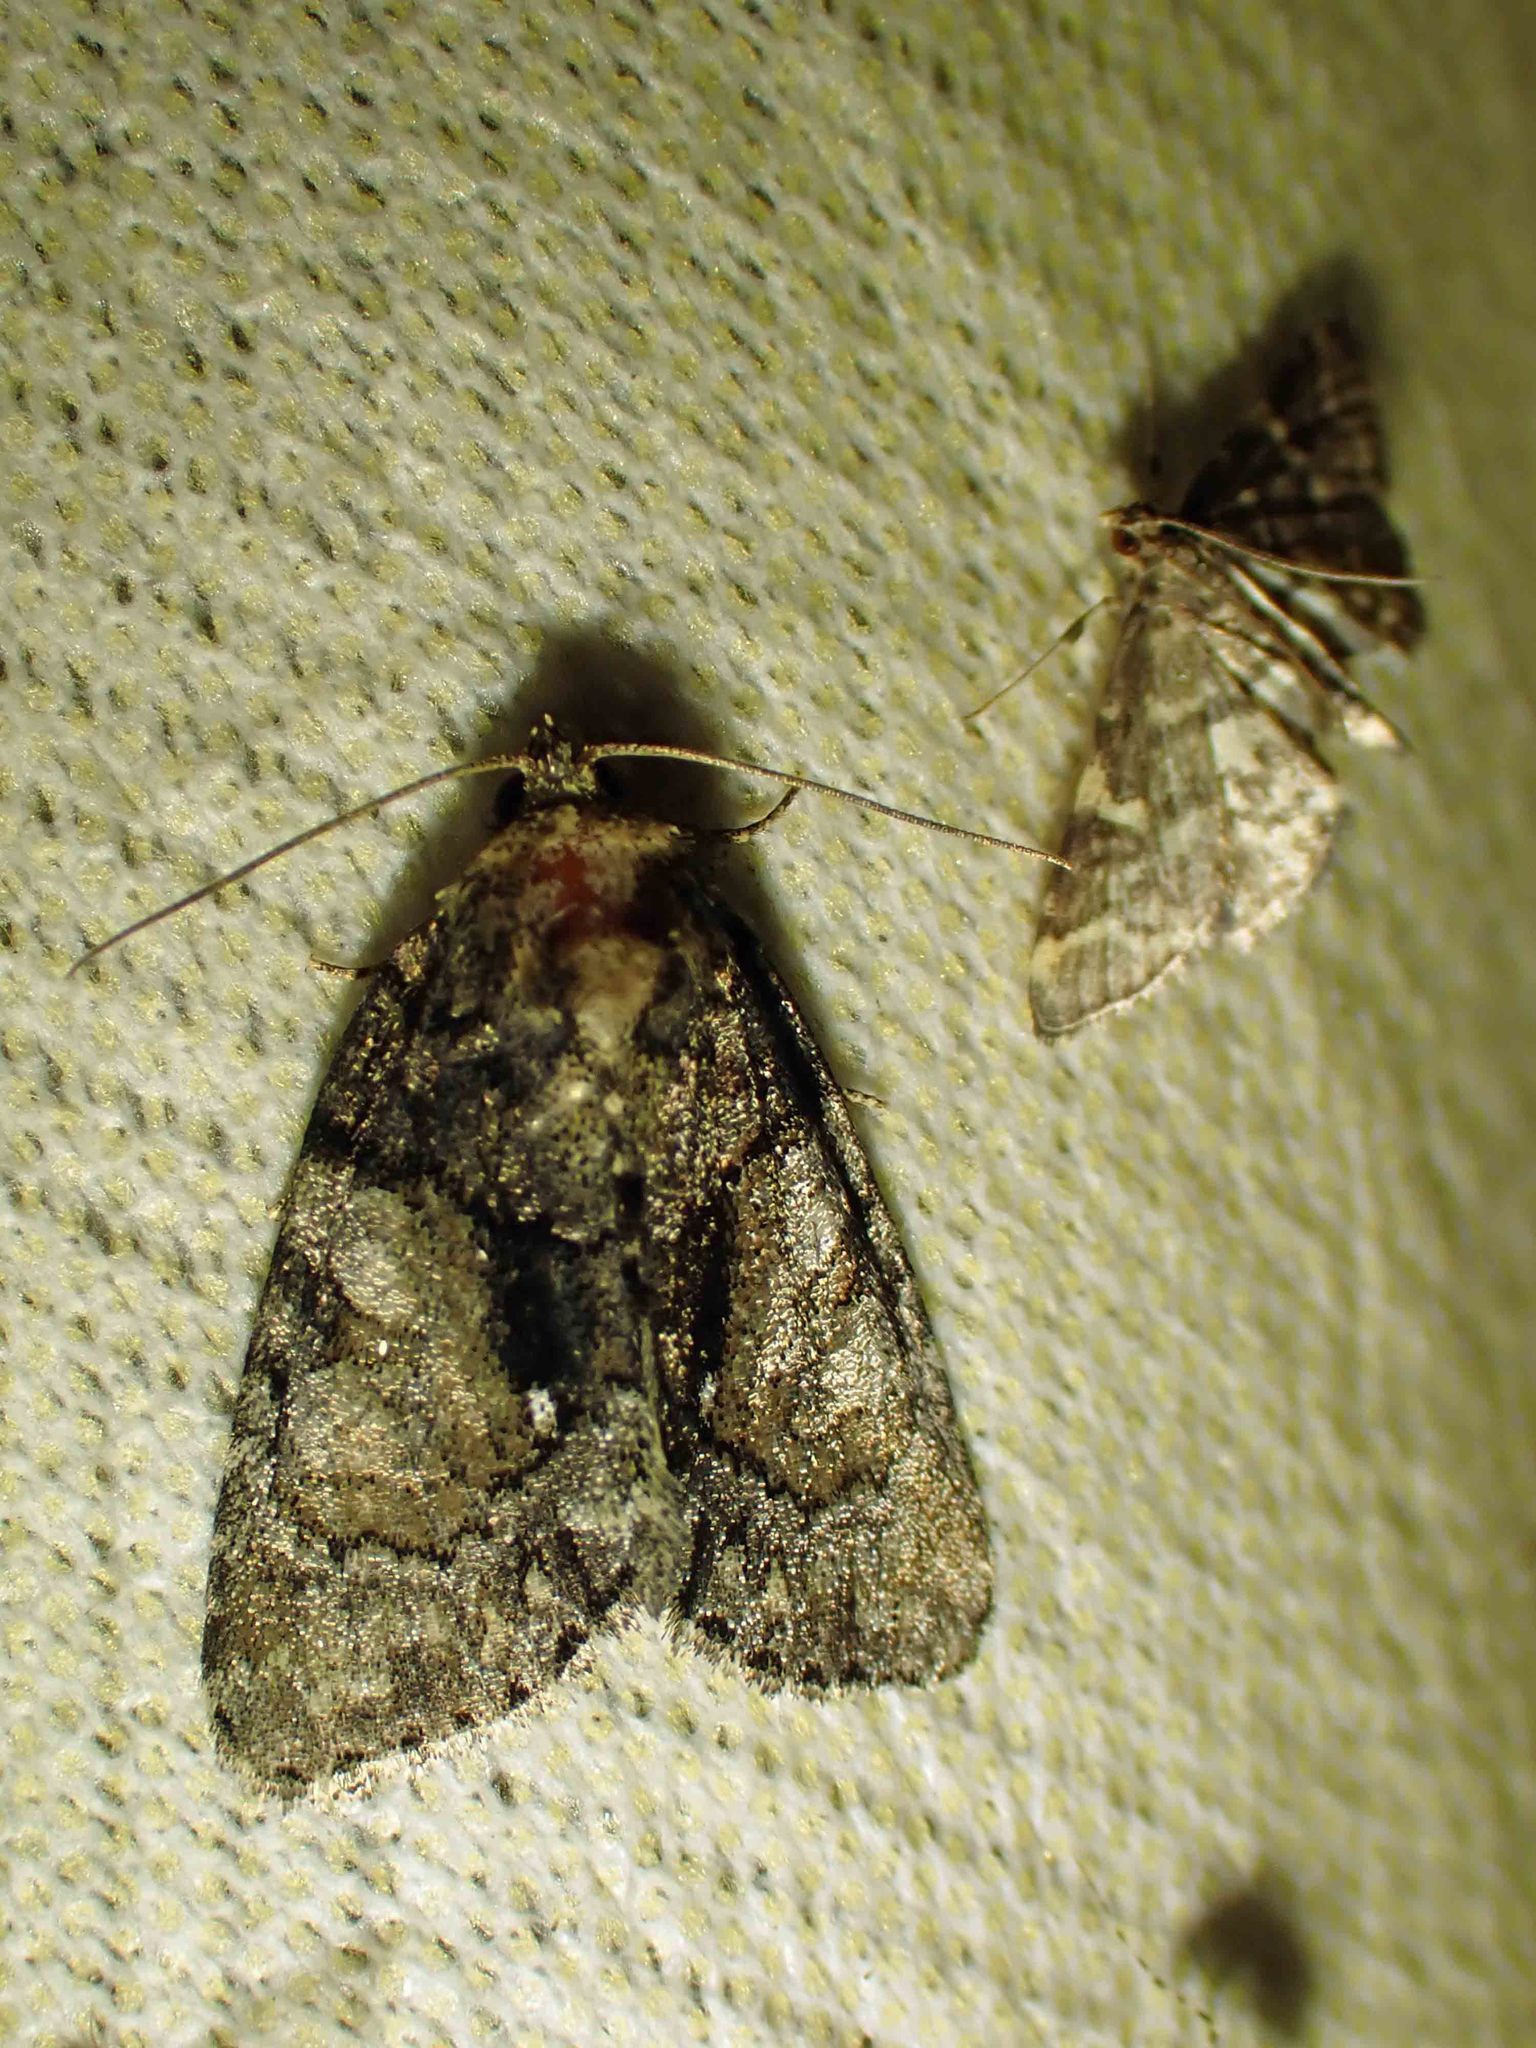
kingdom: Animalia
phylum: Arthropoda
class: Insecta
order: Lepidoptera
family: Noctuidae
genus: Chytonix
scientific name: Chytonix palliatricula
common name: Cloaked marvel
